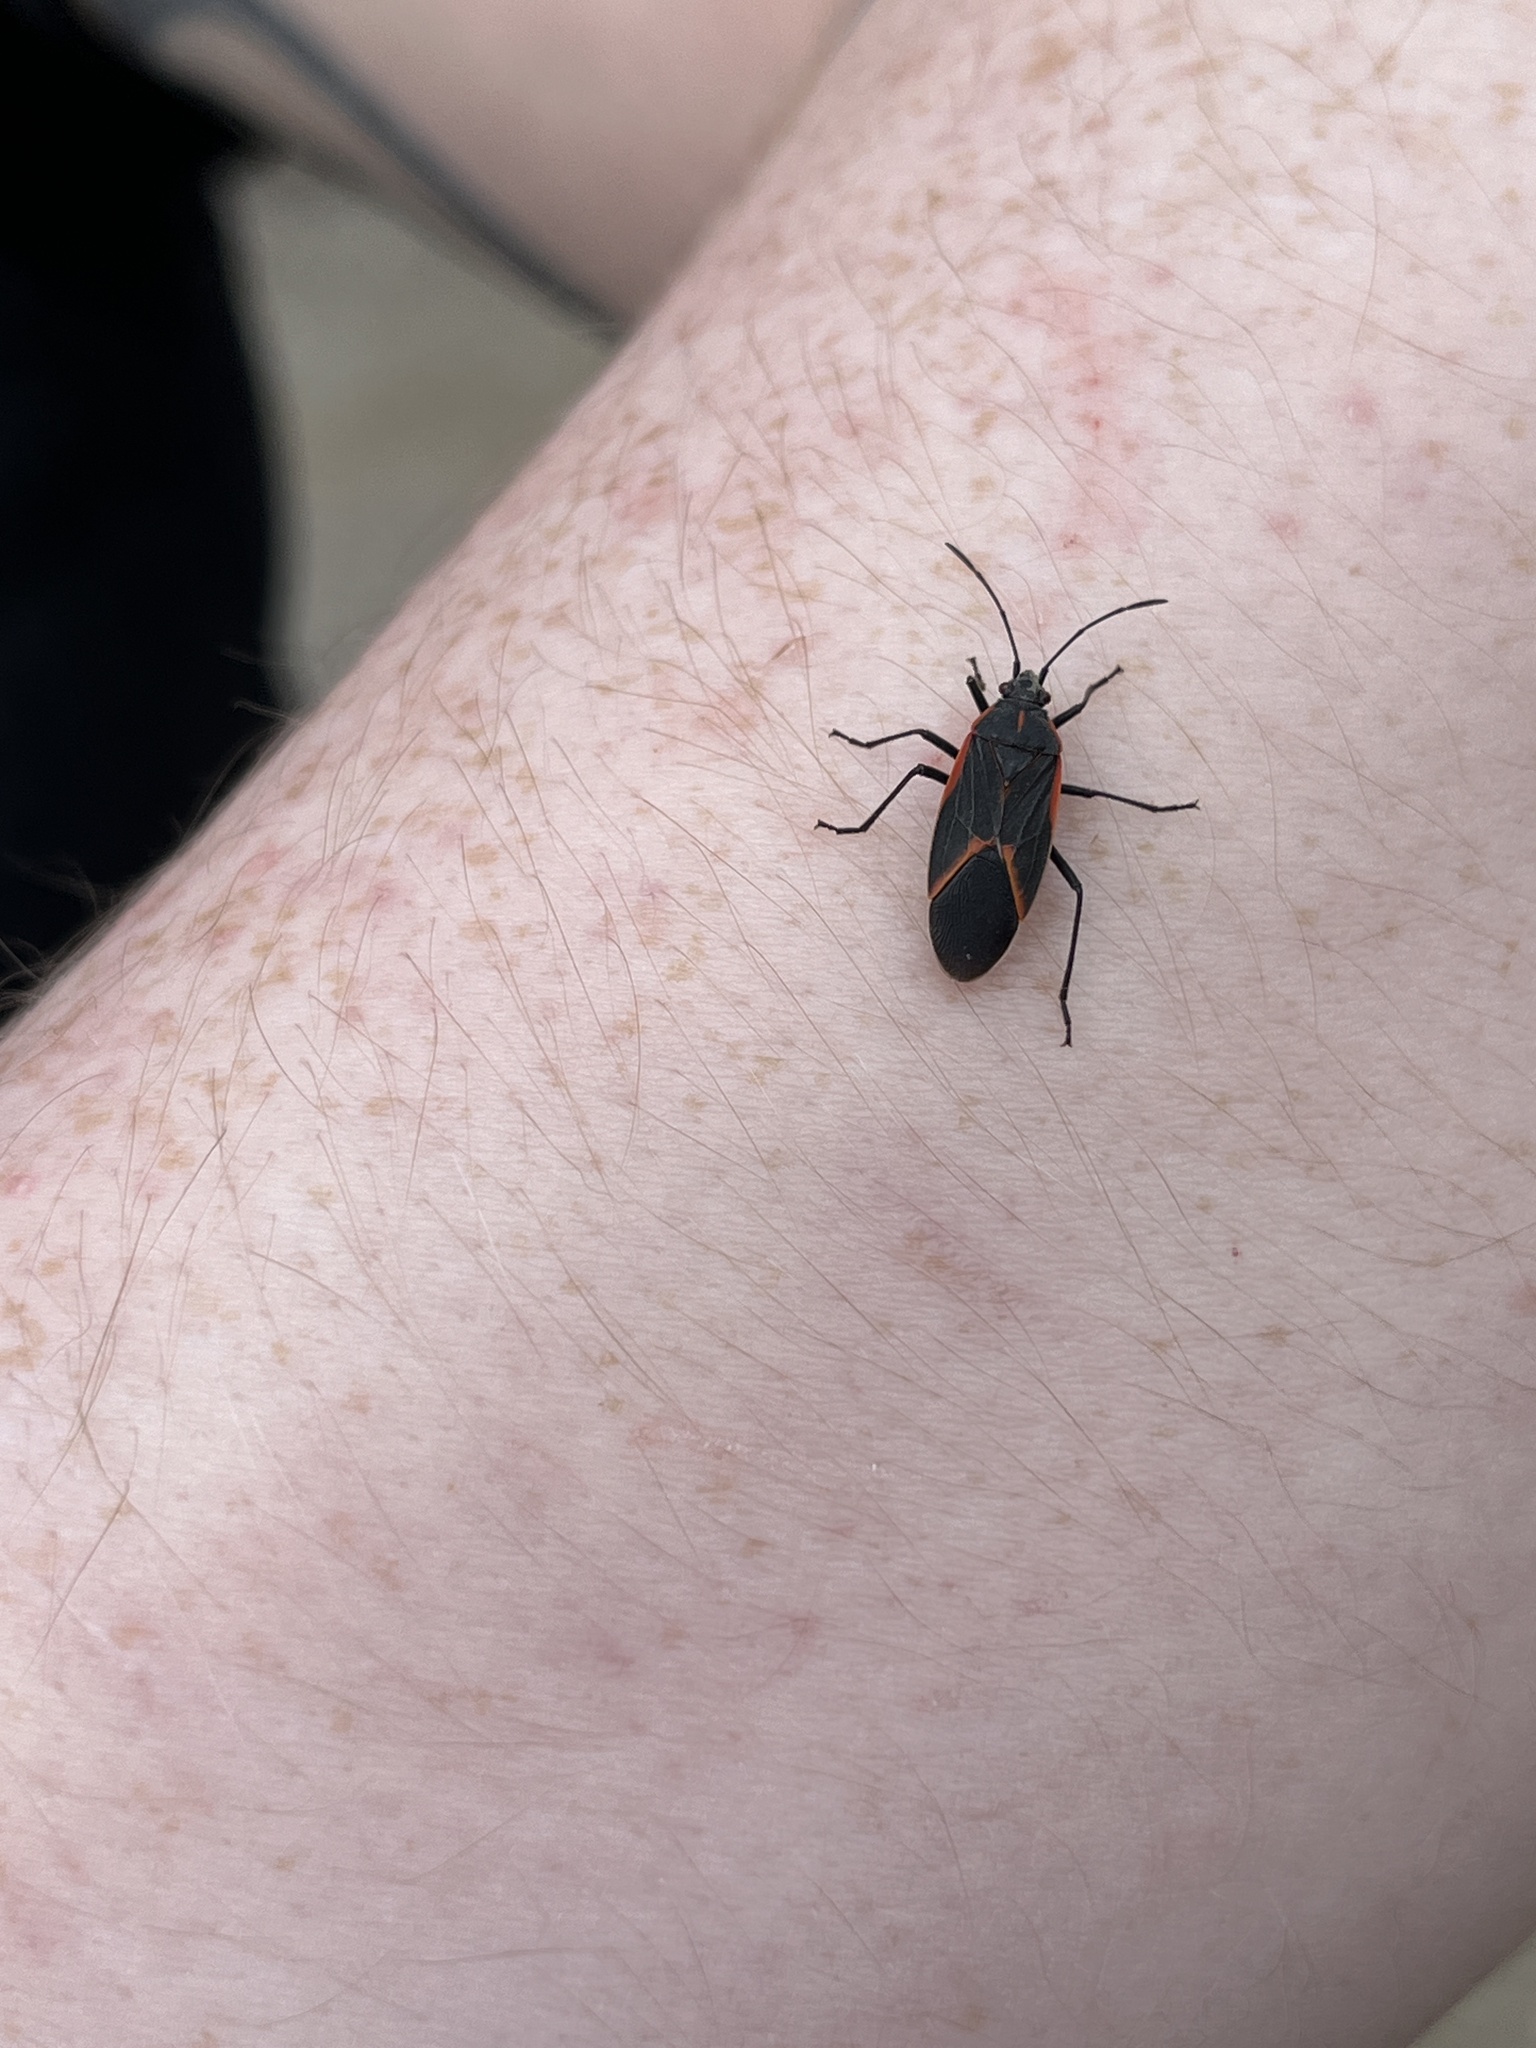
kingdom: Animalia
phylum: Arthropoda
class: Insecta
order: Hemiptera
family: Rhopalidae
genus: Boisea
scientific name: Boisea trivittata
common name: Boxelder bug
